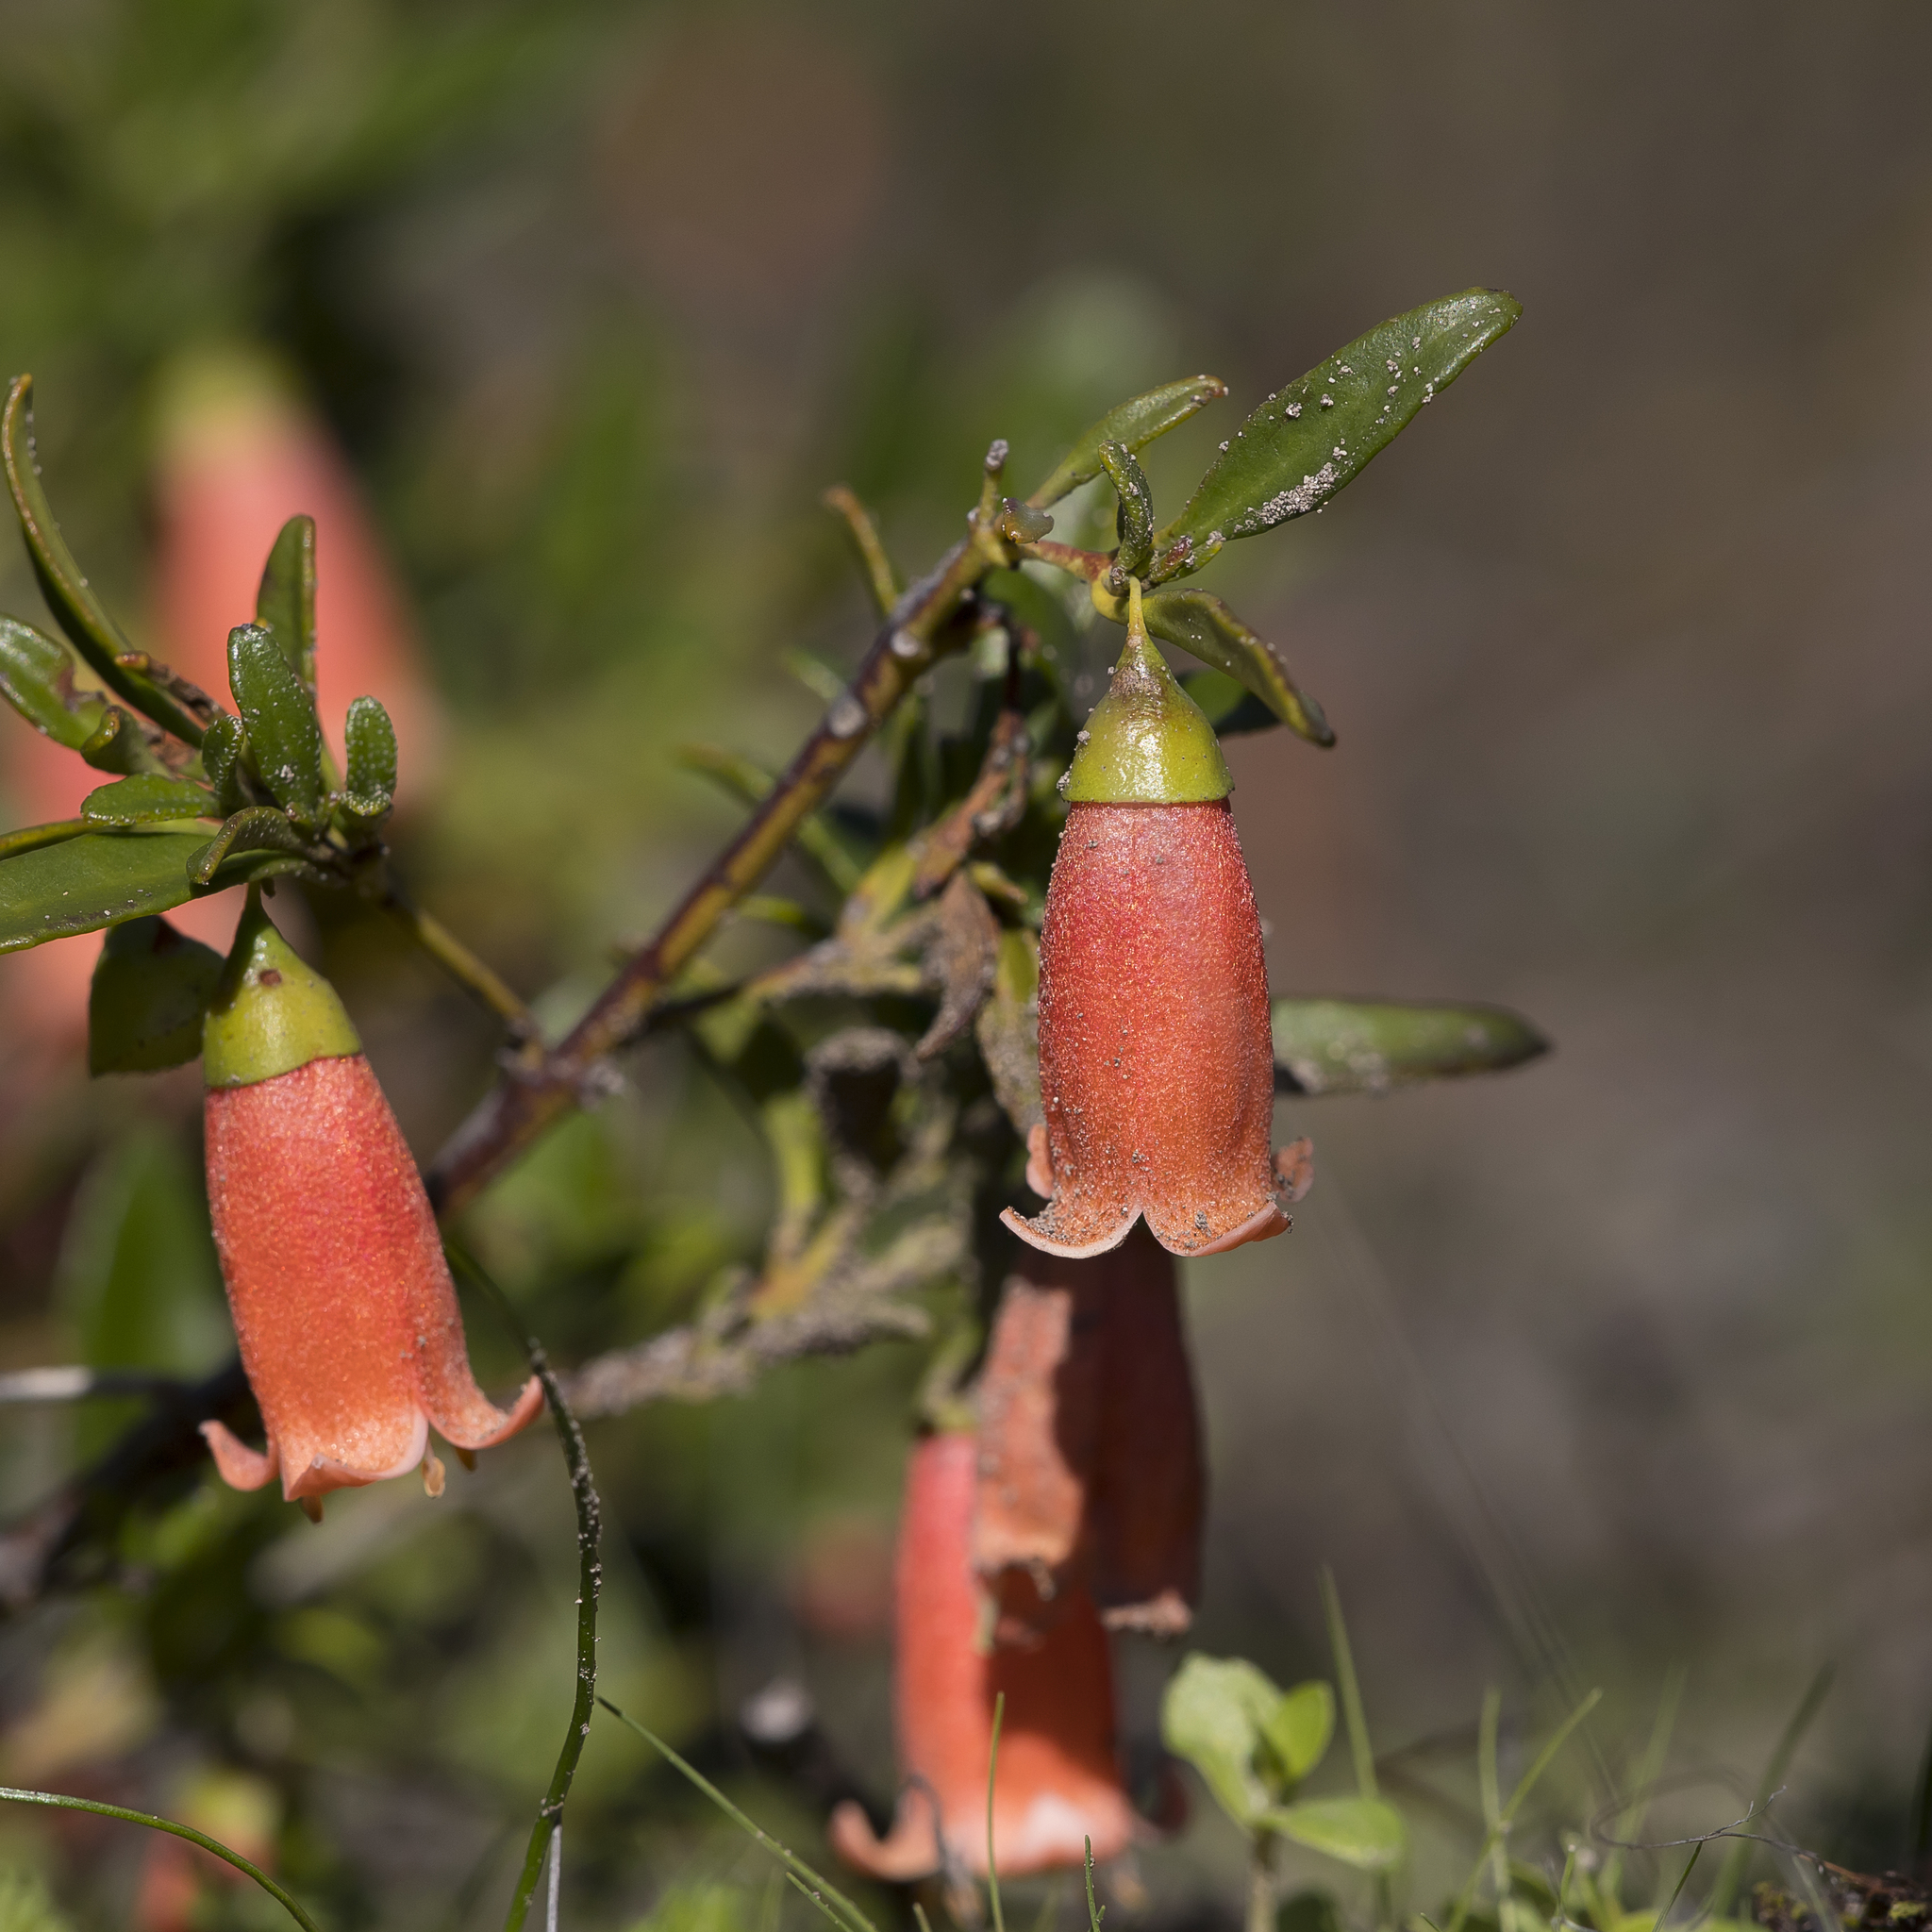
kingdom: Plantae
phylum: Tracheophyta
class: Magnoliopsida
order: Sapindales
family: Rutaceae
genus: Correa
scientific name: Correa pulchella
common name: Salmon correa
